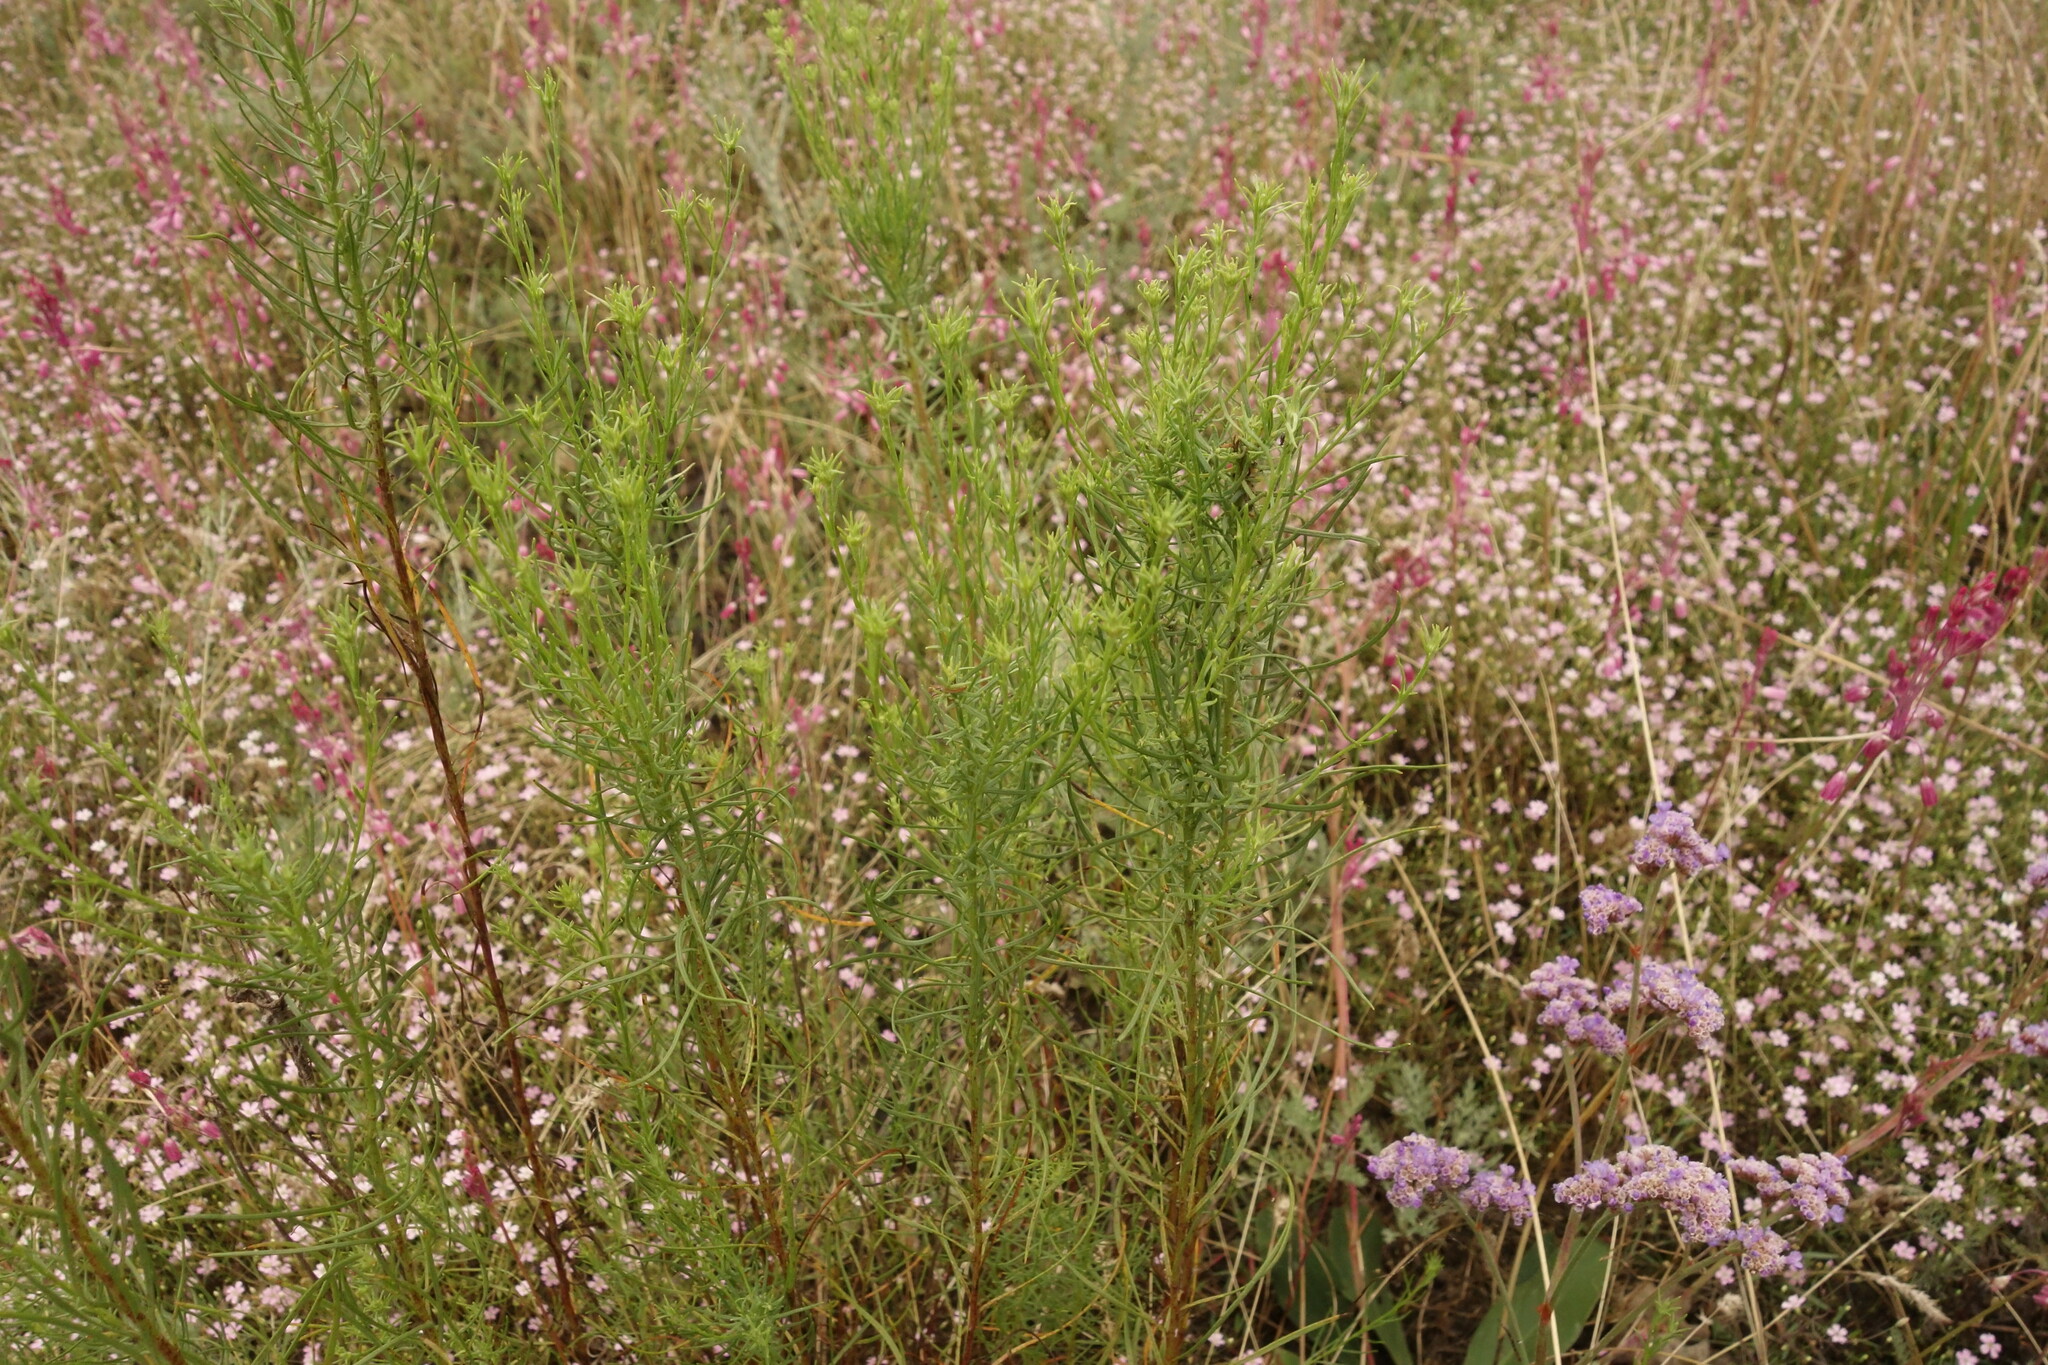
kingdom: Plantae
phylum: Tracheophyta
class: Magnoliopsida
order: Asterales
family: Asteraceae
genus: Galatella
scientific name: Galatella linosyris
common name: Goldilocks aster
